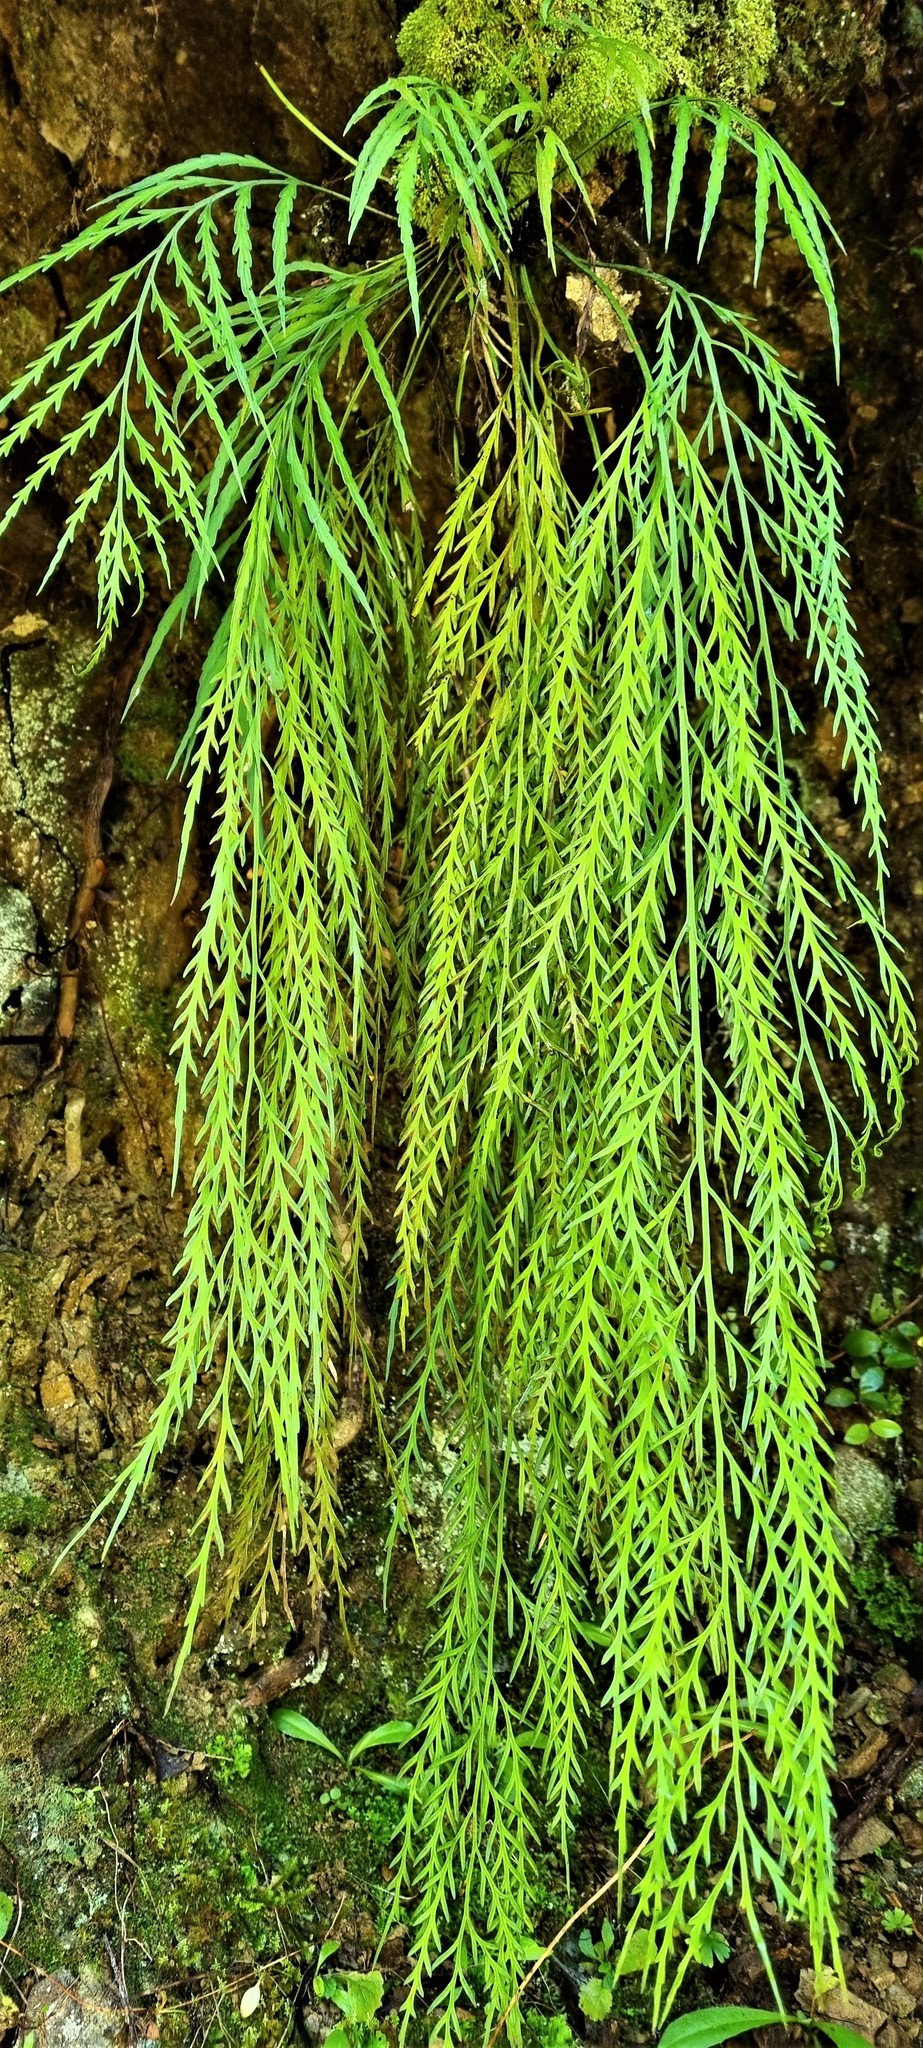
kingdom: Plantae
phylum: Tracheophyta
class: Polypodiopsida
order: Polypodiales
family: Aspleniaceae
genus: Asplenium
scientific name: Asplenium flaccidum
